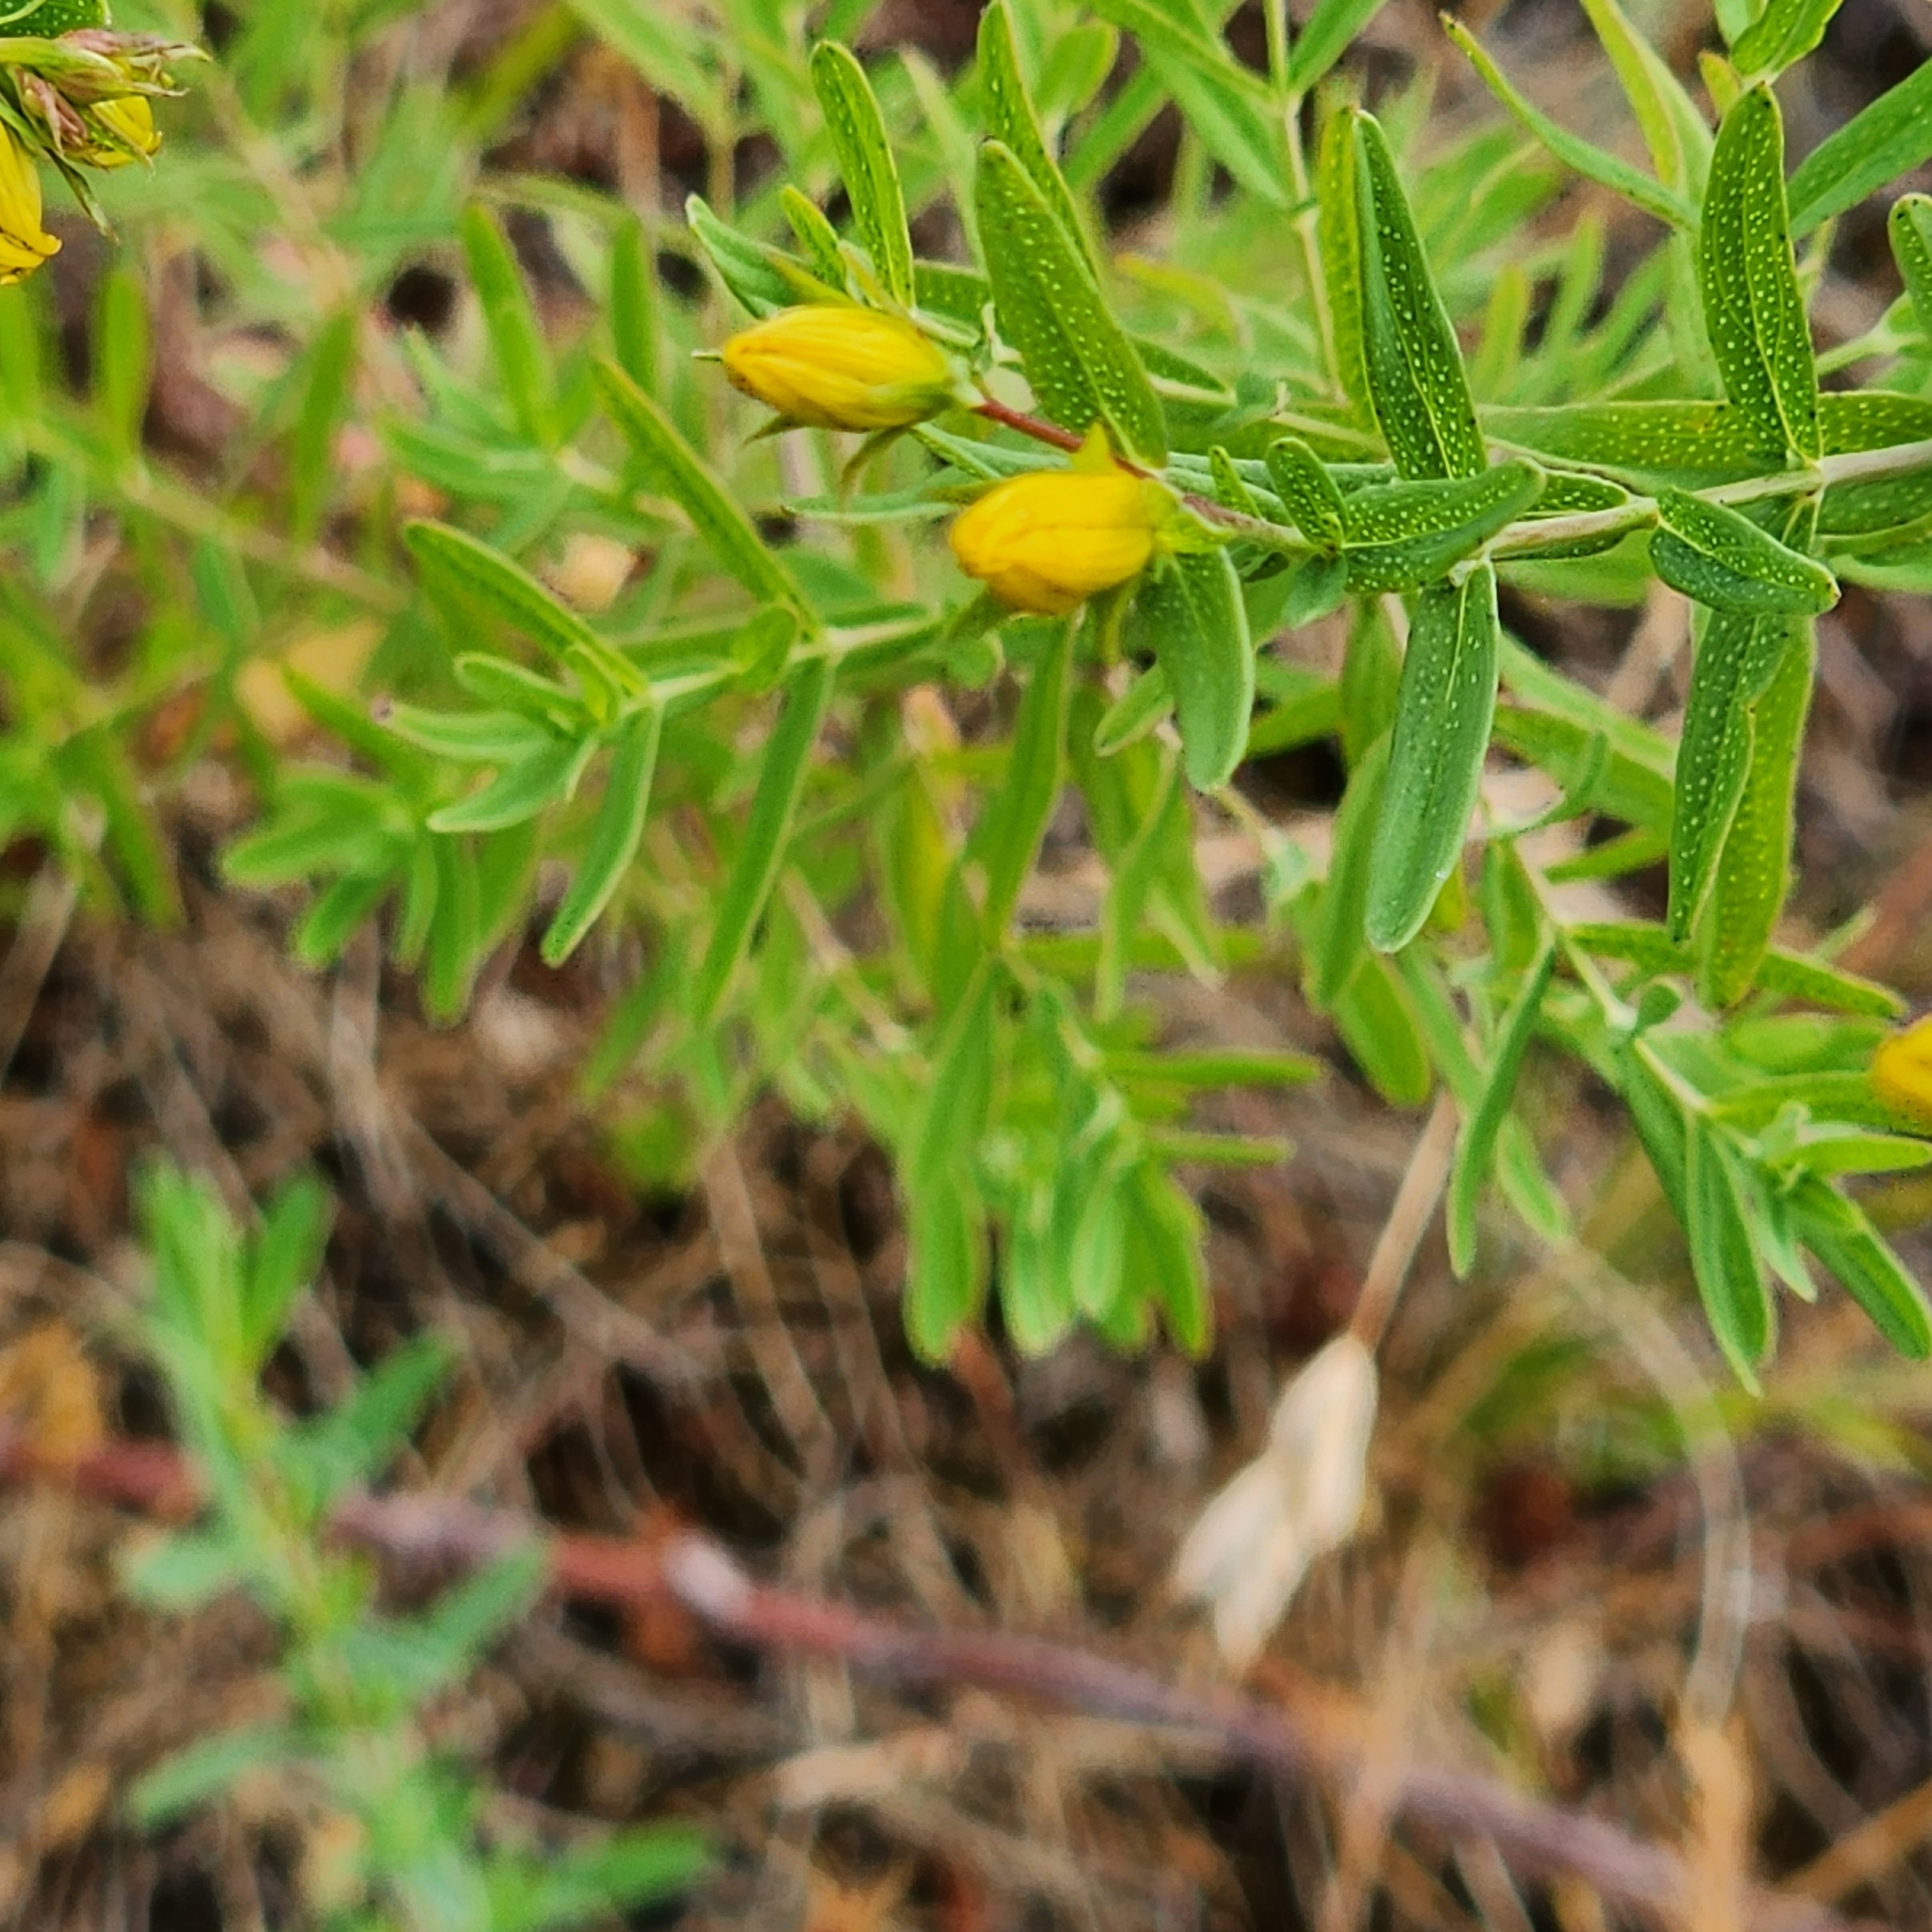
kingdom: Plantae
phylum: Tracheophyta
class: Magnoliopsida
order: Malpighiales
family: Hypericaceae
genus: Hypericum
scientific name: Hypericum perforatum
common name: Common st. johnswort
